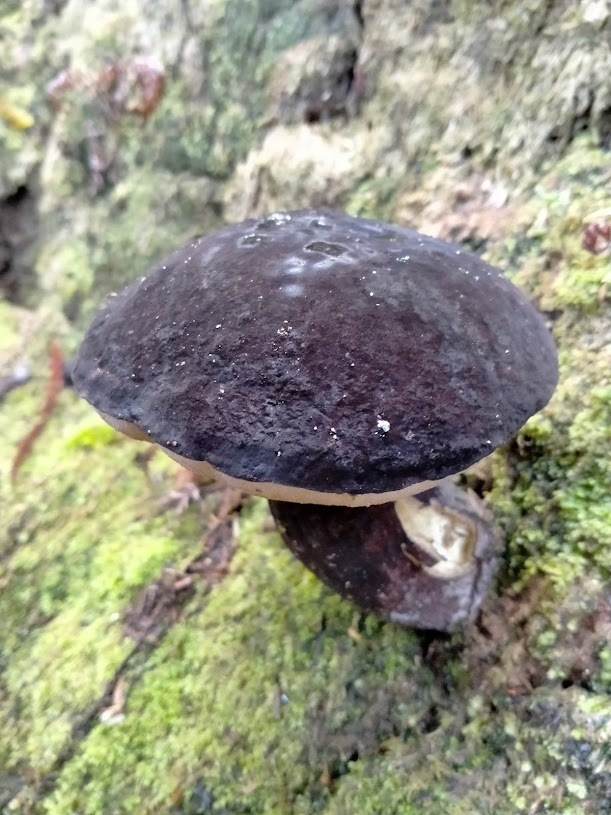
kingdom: Fungi
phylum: Basidiomycota
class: Agaricomycetes
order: Boletales
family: Boletaceae
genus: Porphyrellus
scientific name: Porphyrellus formosus
